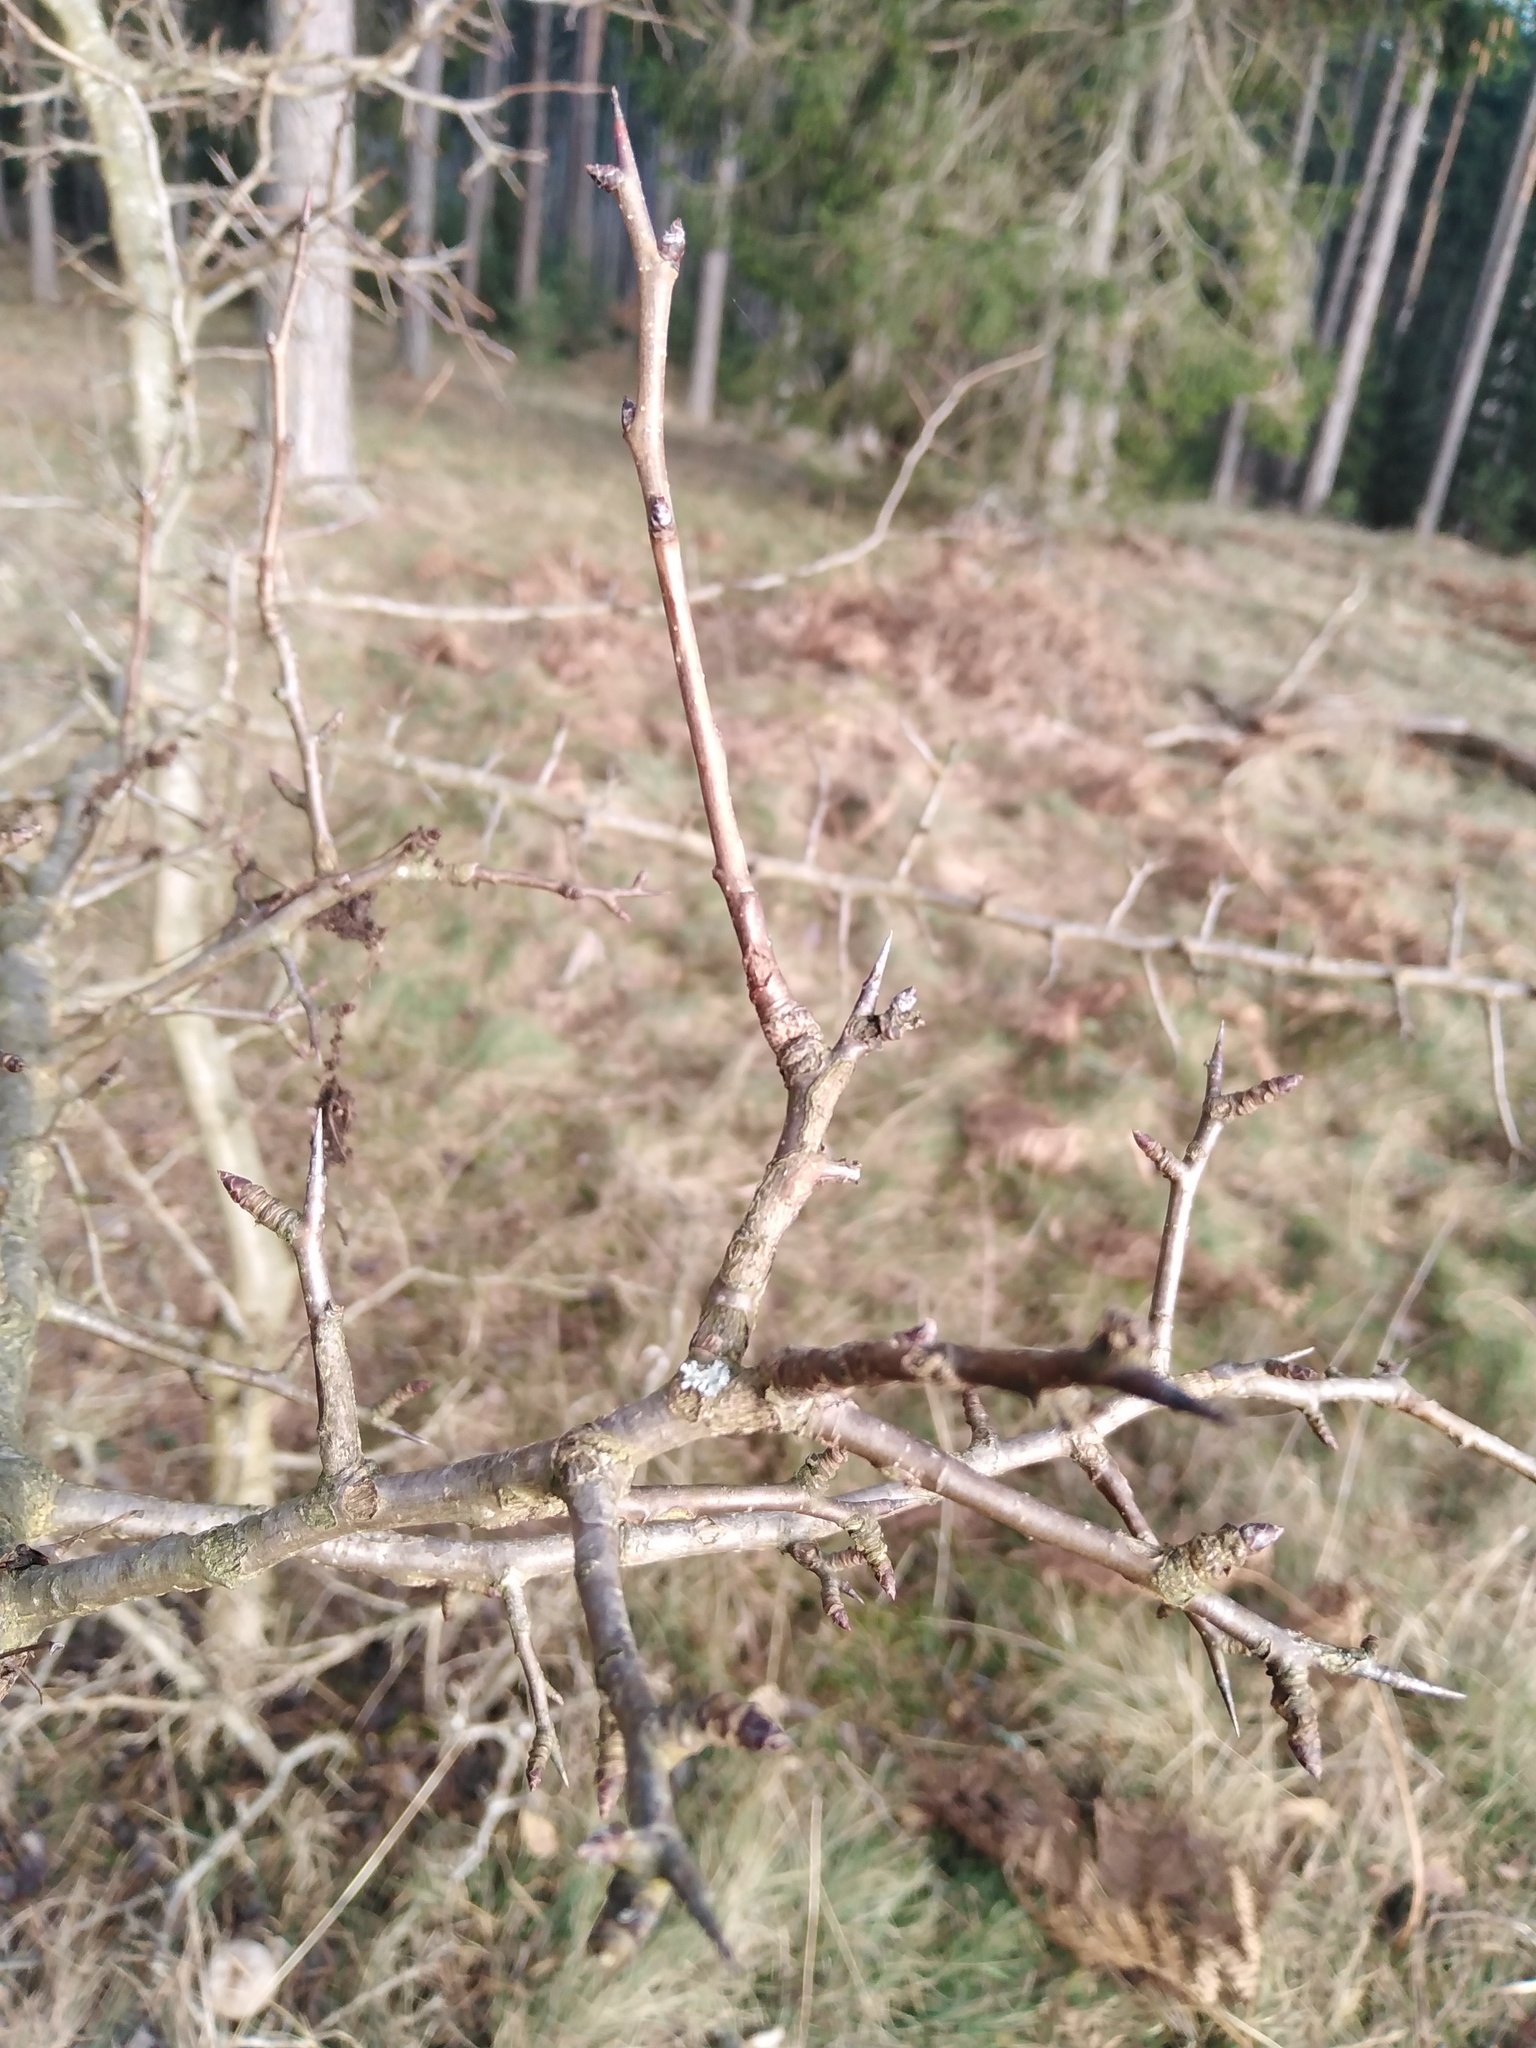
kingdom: Plantae
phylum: Tracheophyta
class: Magnoliopsida
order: Rosales
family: Rosaceae
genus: Pyrus
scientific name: Pyrus
